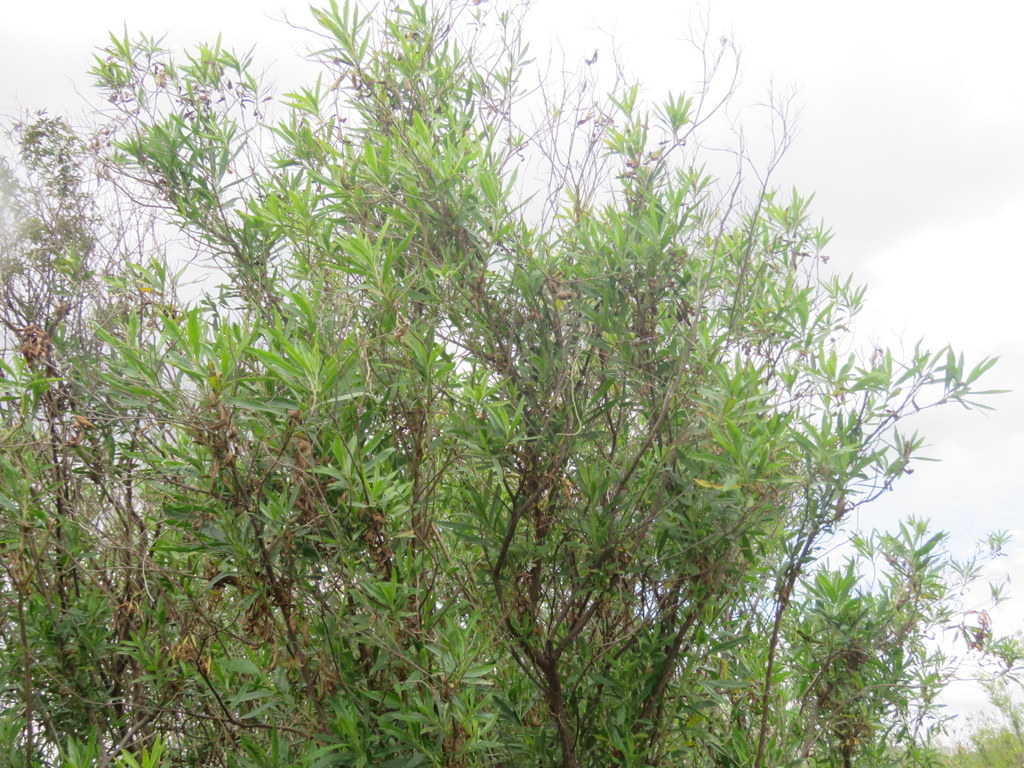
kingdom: Plantae
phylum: Tracheophyta
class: Magnoliopsida
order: Asterales
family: Asteraceae
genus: Baccharis
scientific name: Baccharis salicifolia
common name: Sticky baccharis
